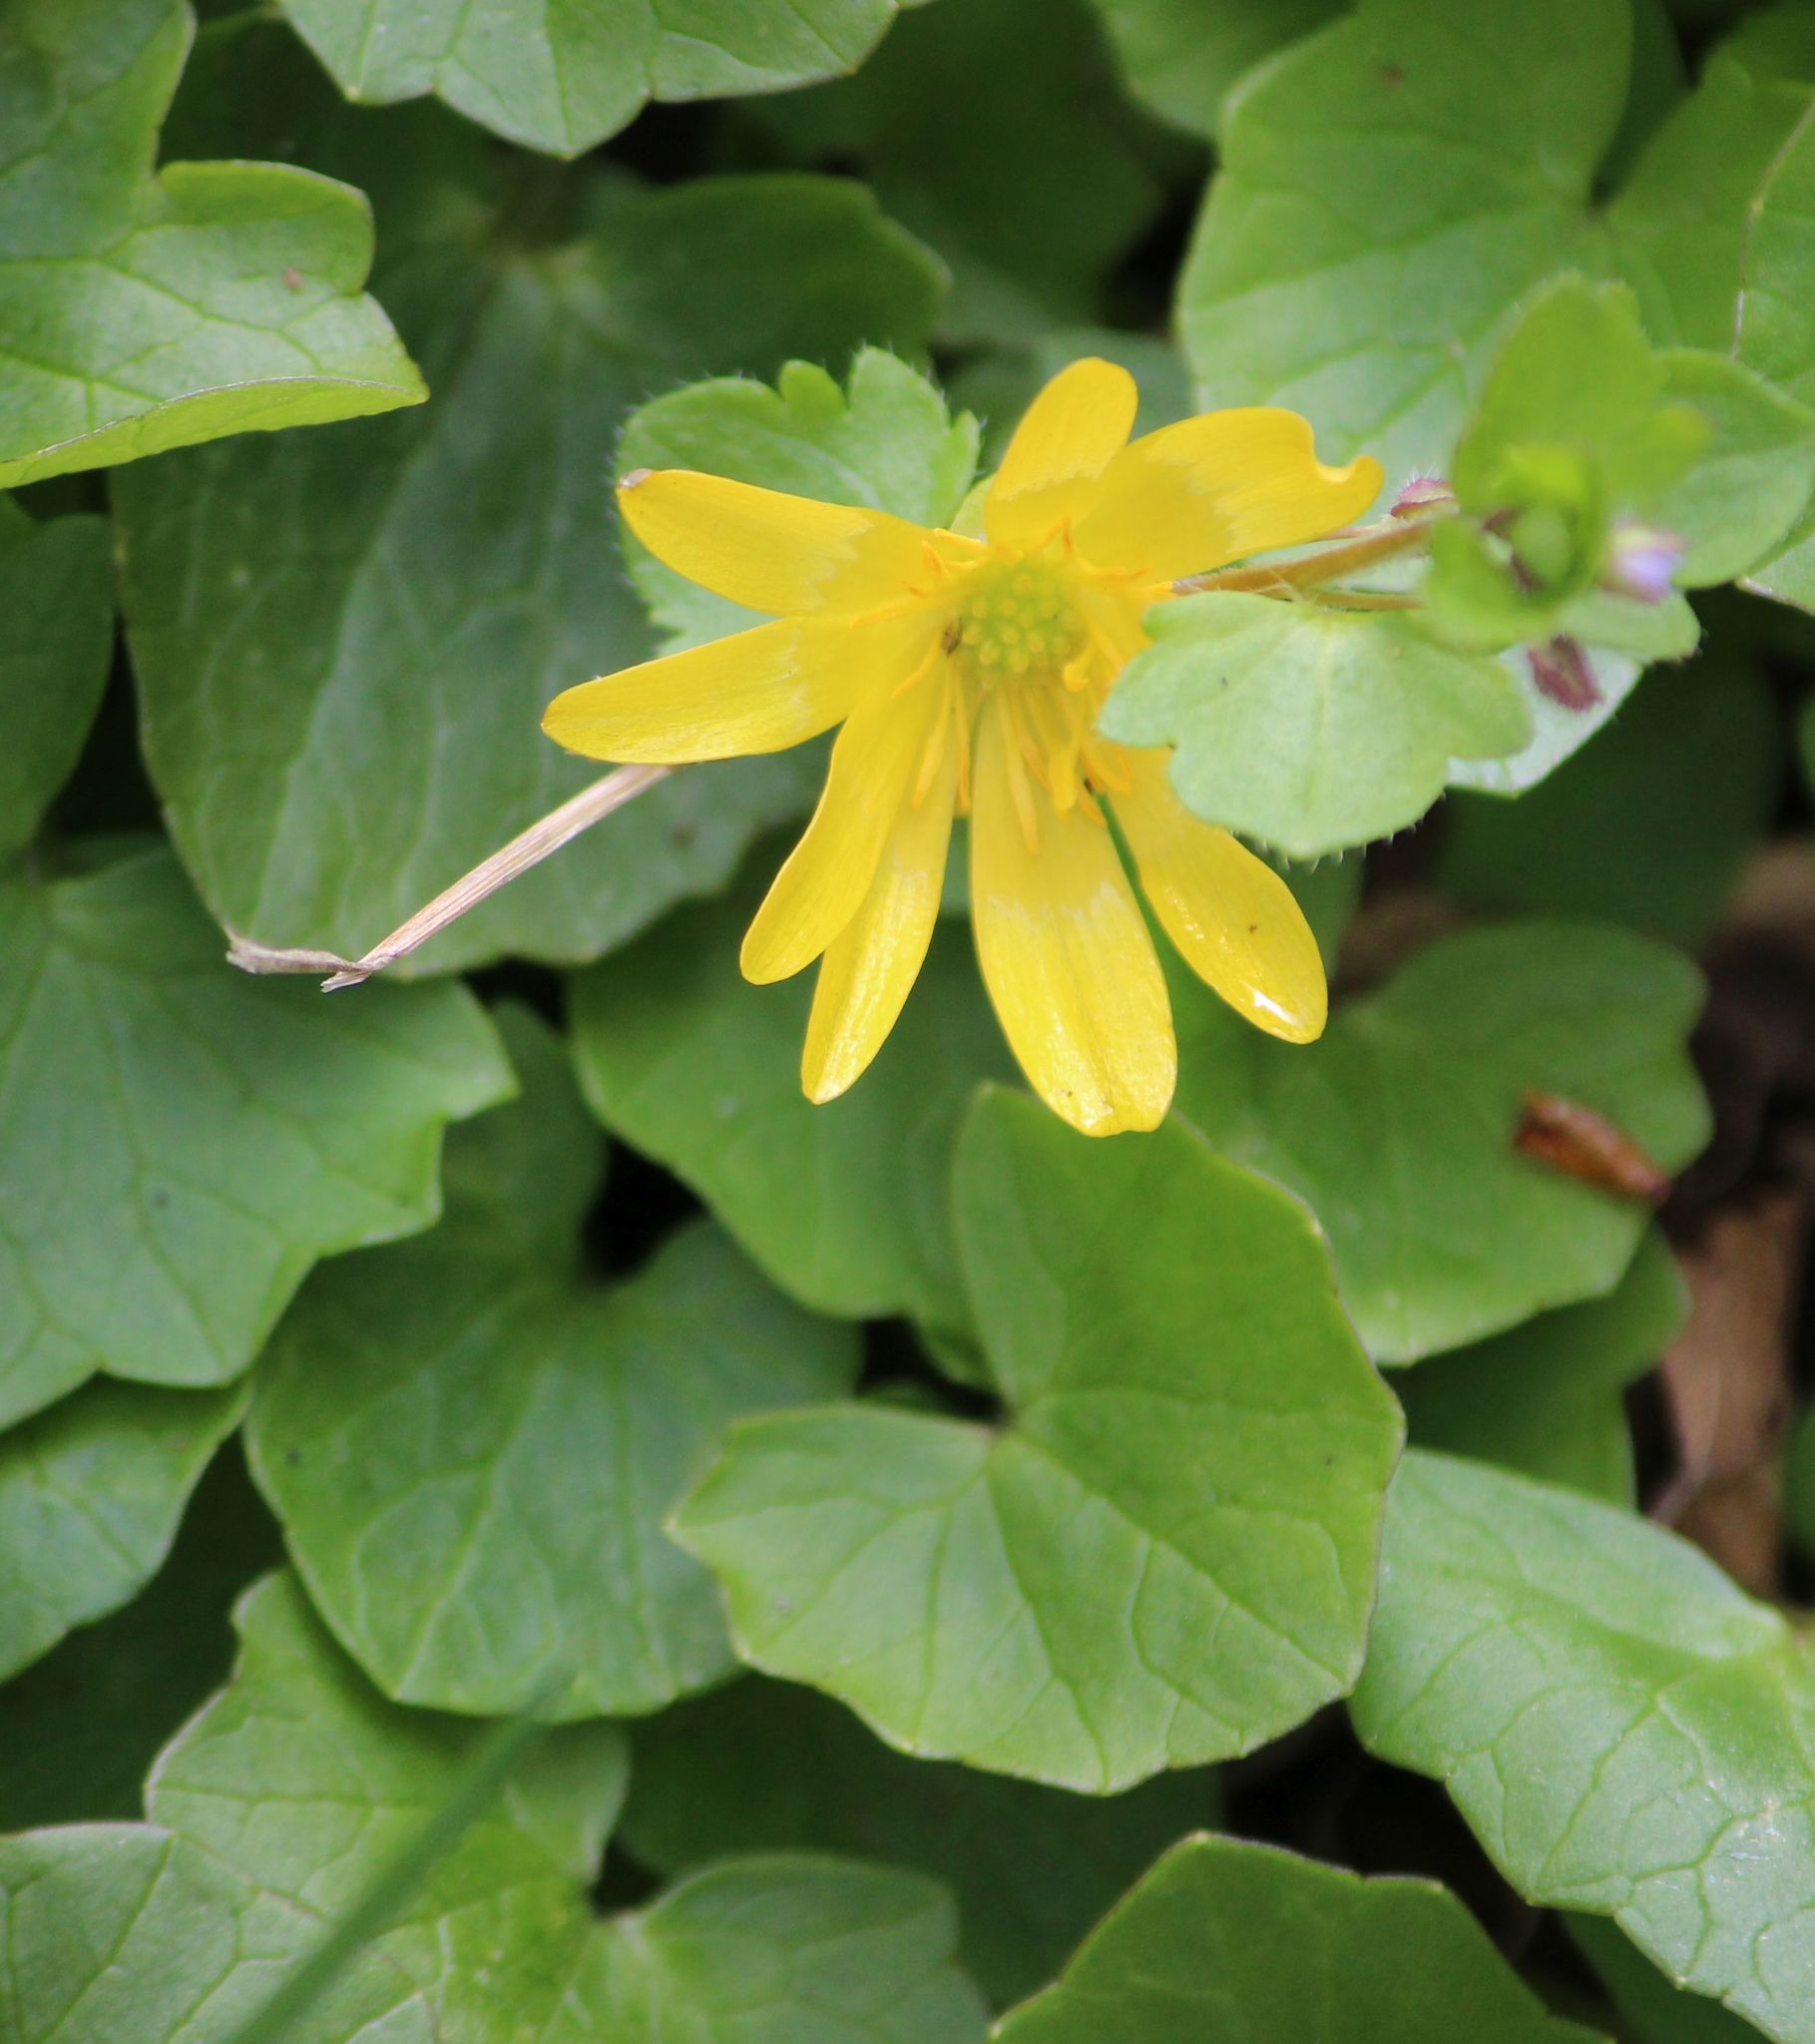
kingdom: Plantae
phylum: Tracheophyta
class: Magnoliopsida
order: Ranunculales
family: Ranunculaceae
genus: Ficaria
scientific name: Ficaria verna
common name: Lesser celandine
